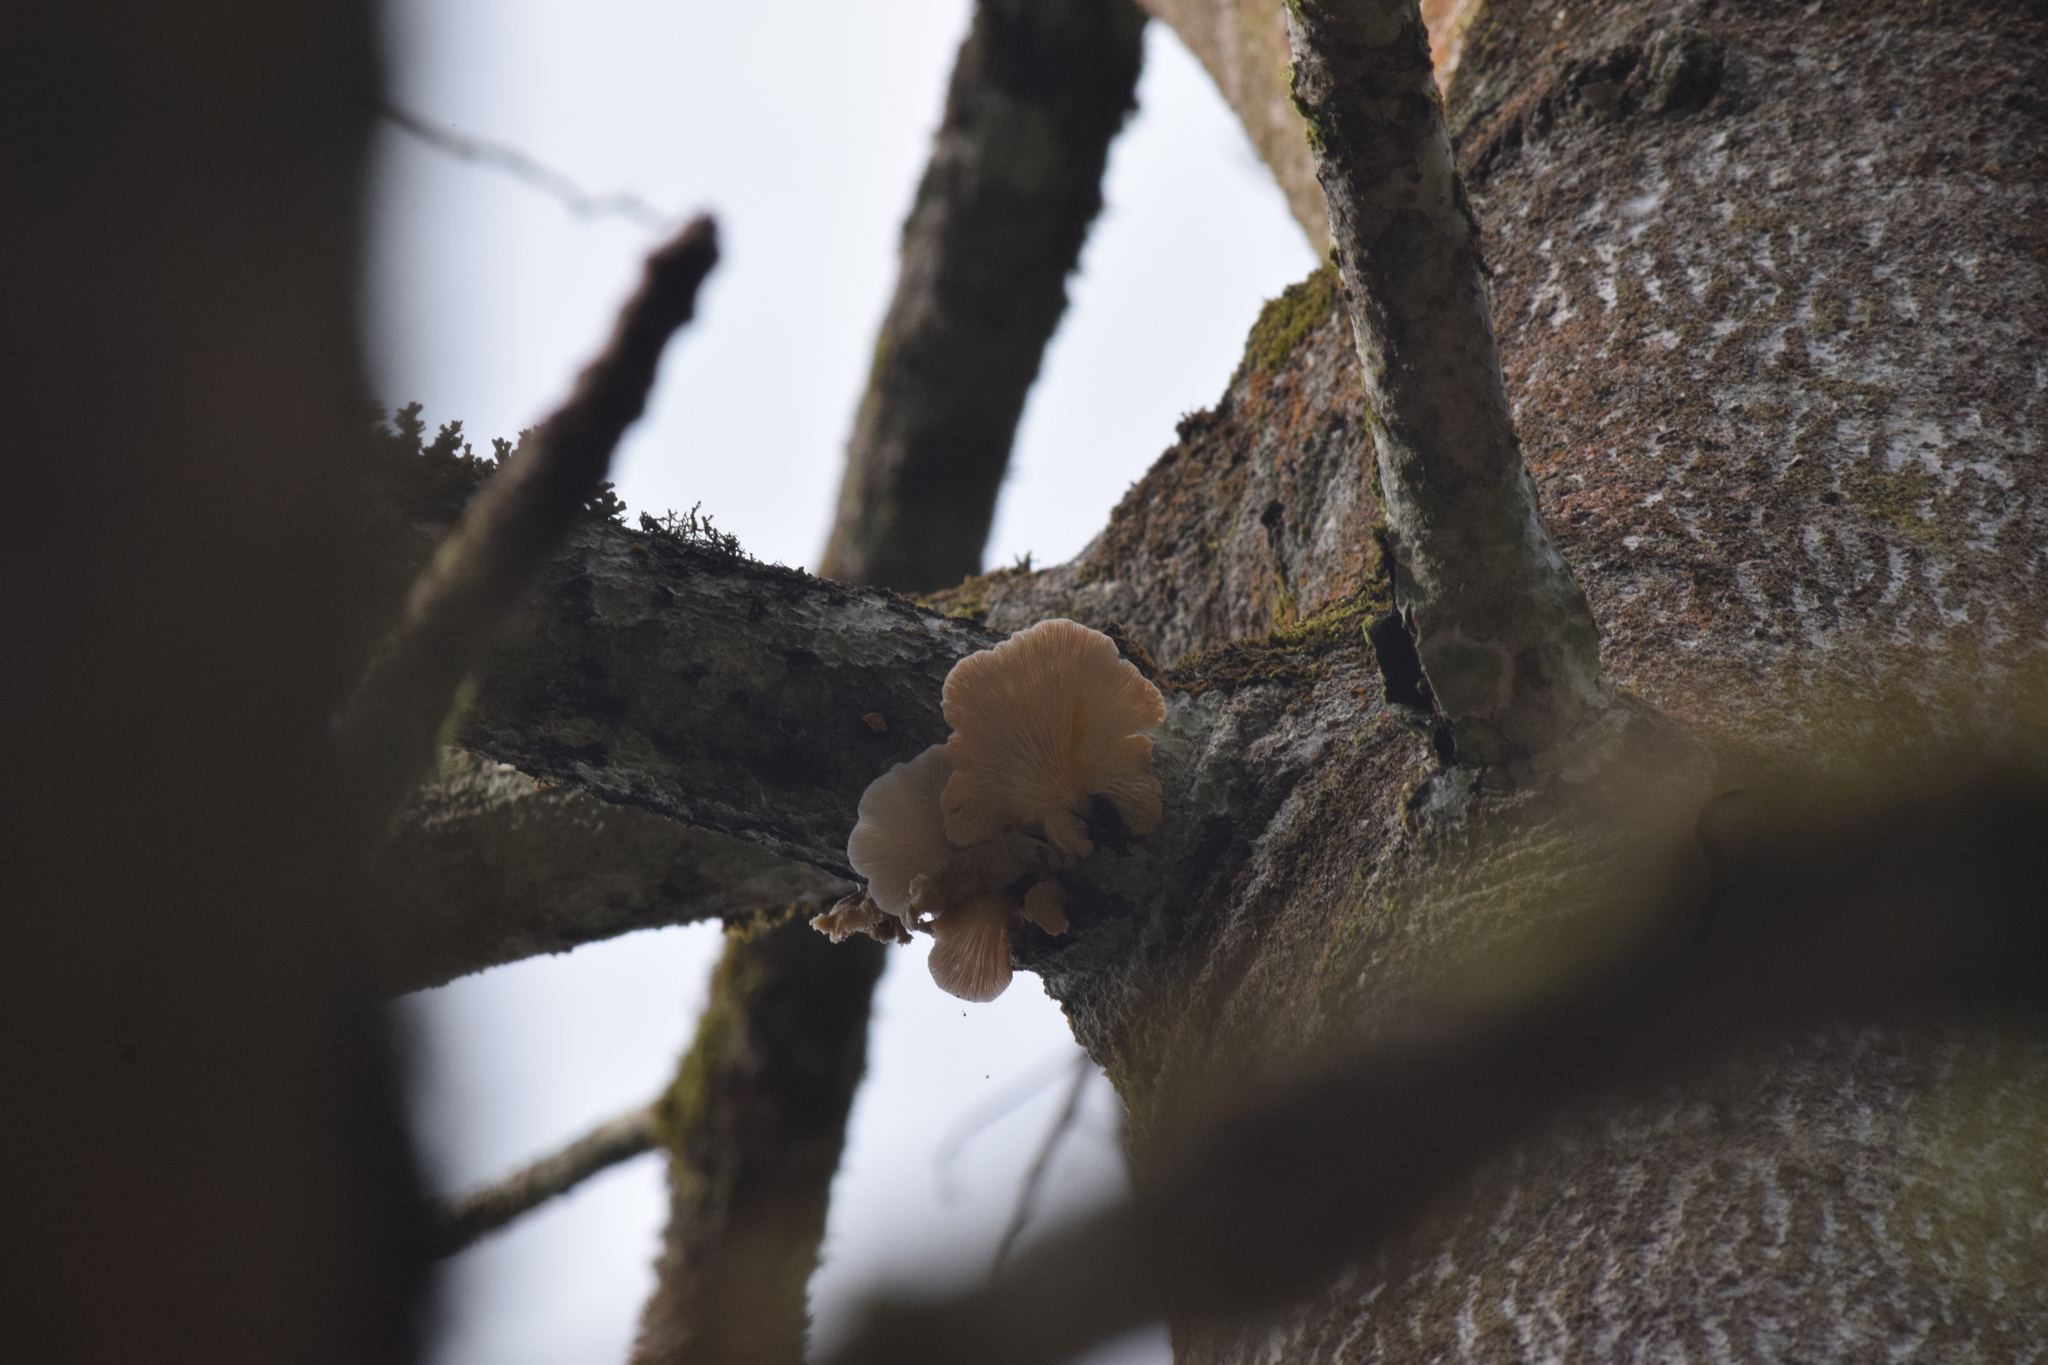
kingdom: Fungi
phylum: Basidiomycota
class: Agaricomycetes
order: Agaricales
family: Pleurotaceae
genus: Pleurotus
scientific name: Pleurotus djamor
